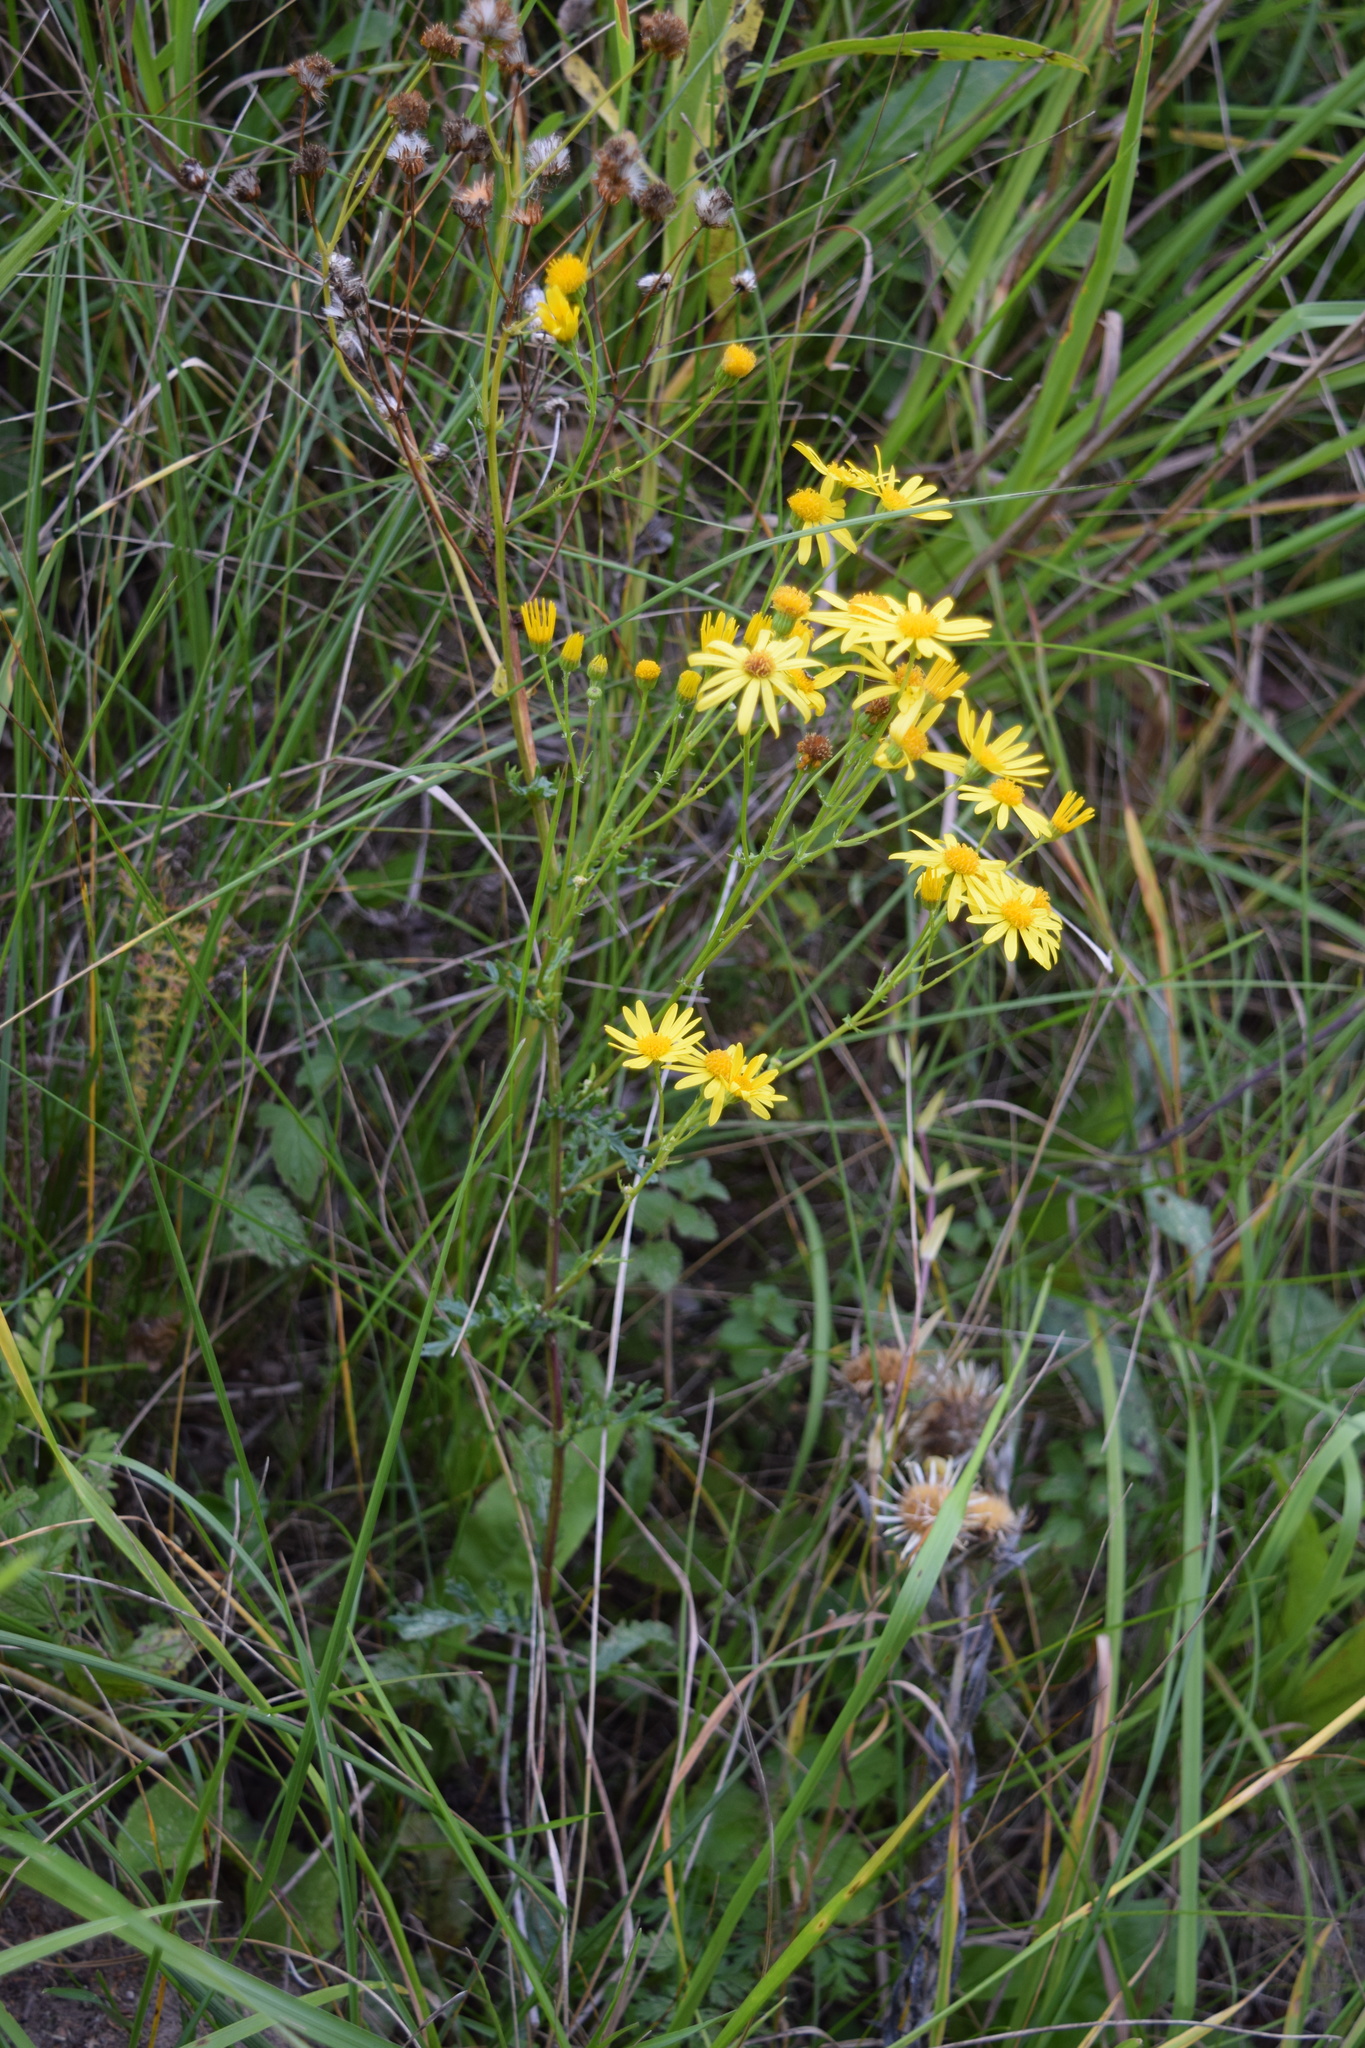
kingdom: Plantae
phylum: Tracheophyta
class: Magnoliopsida
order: Asterales
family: Asteraceae
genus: Jacobaea
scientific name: Jacobaea vulgaris
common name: Stinking willie
